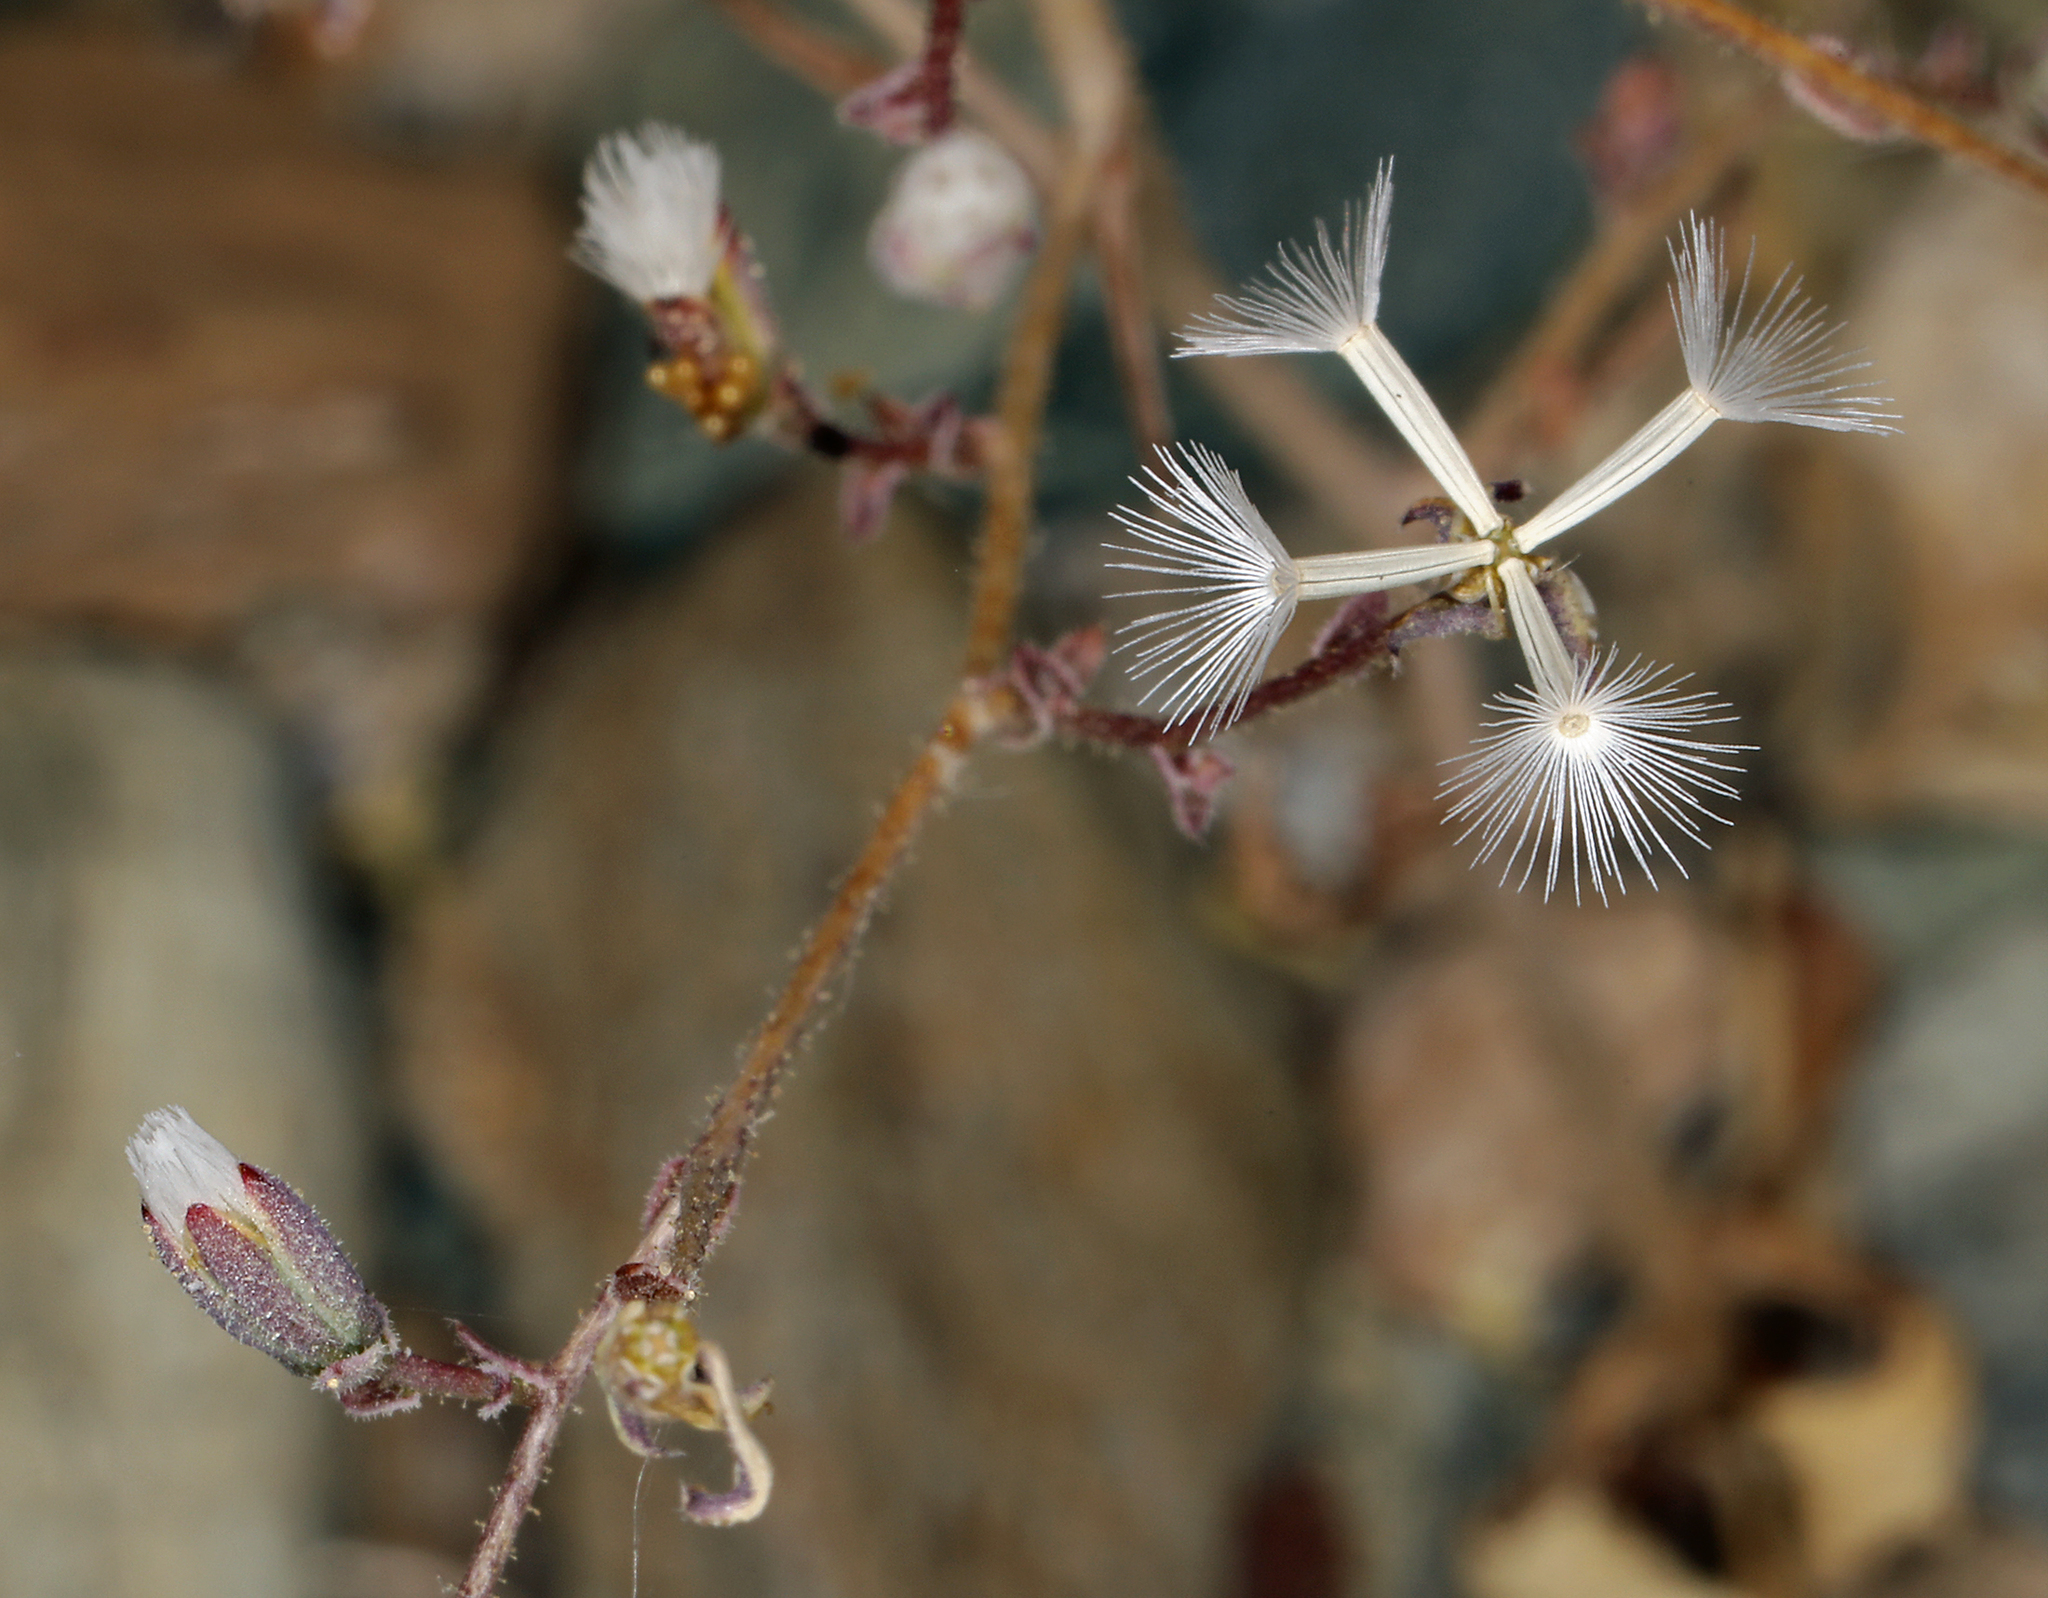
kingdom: Plantae
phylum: Tracheophyta
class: Magnoliopsida
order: Asterales
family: Asteraceae
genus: Lygodesmia
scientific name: Lygodesmia exigua
